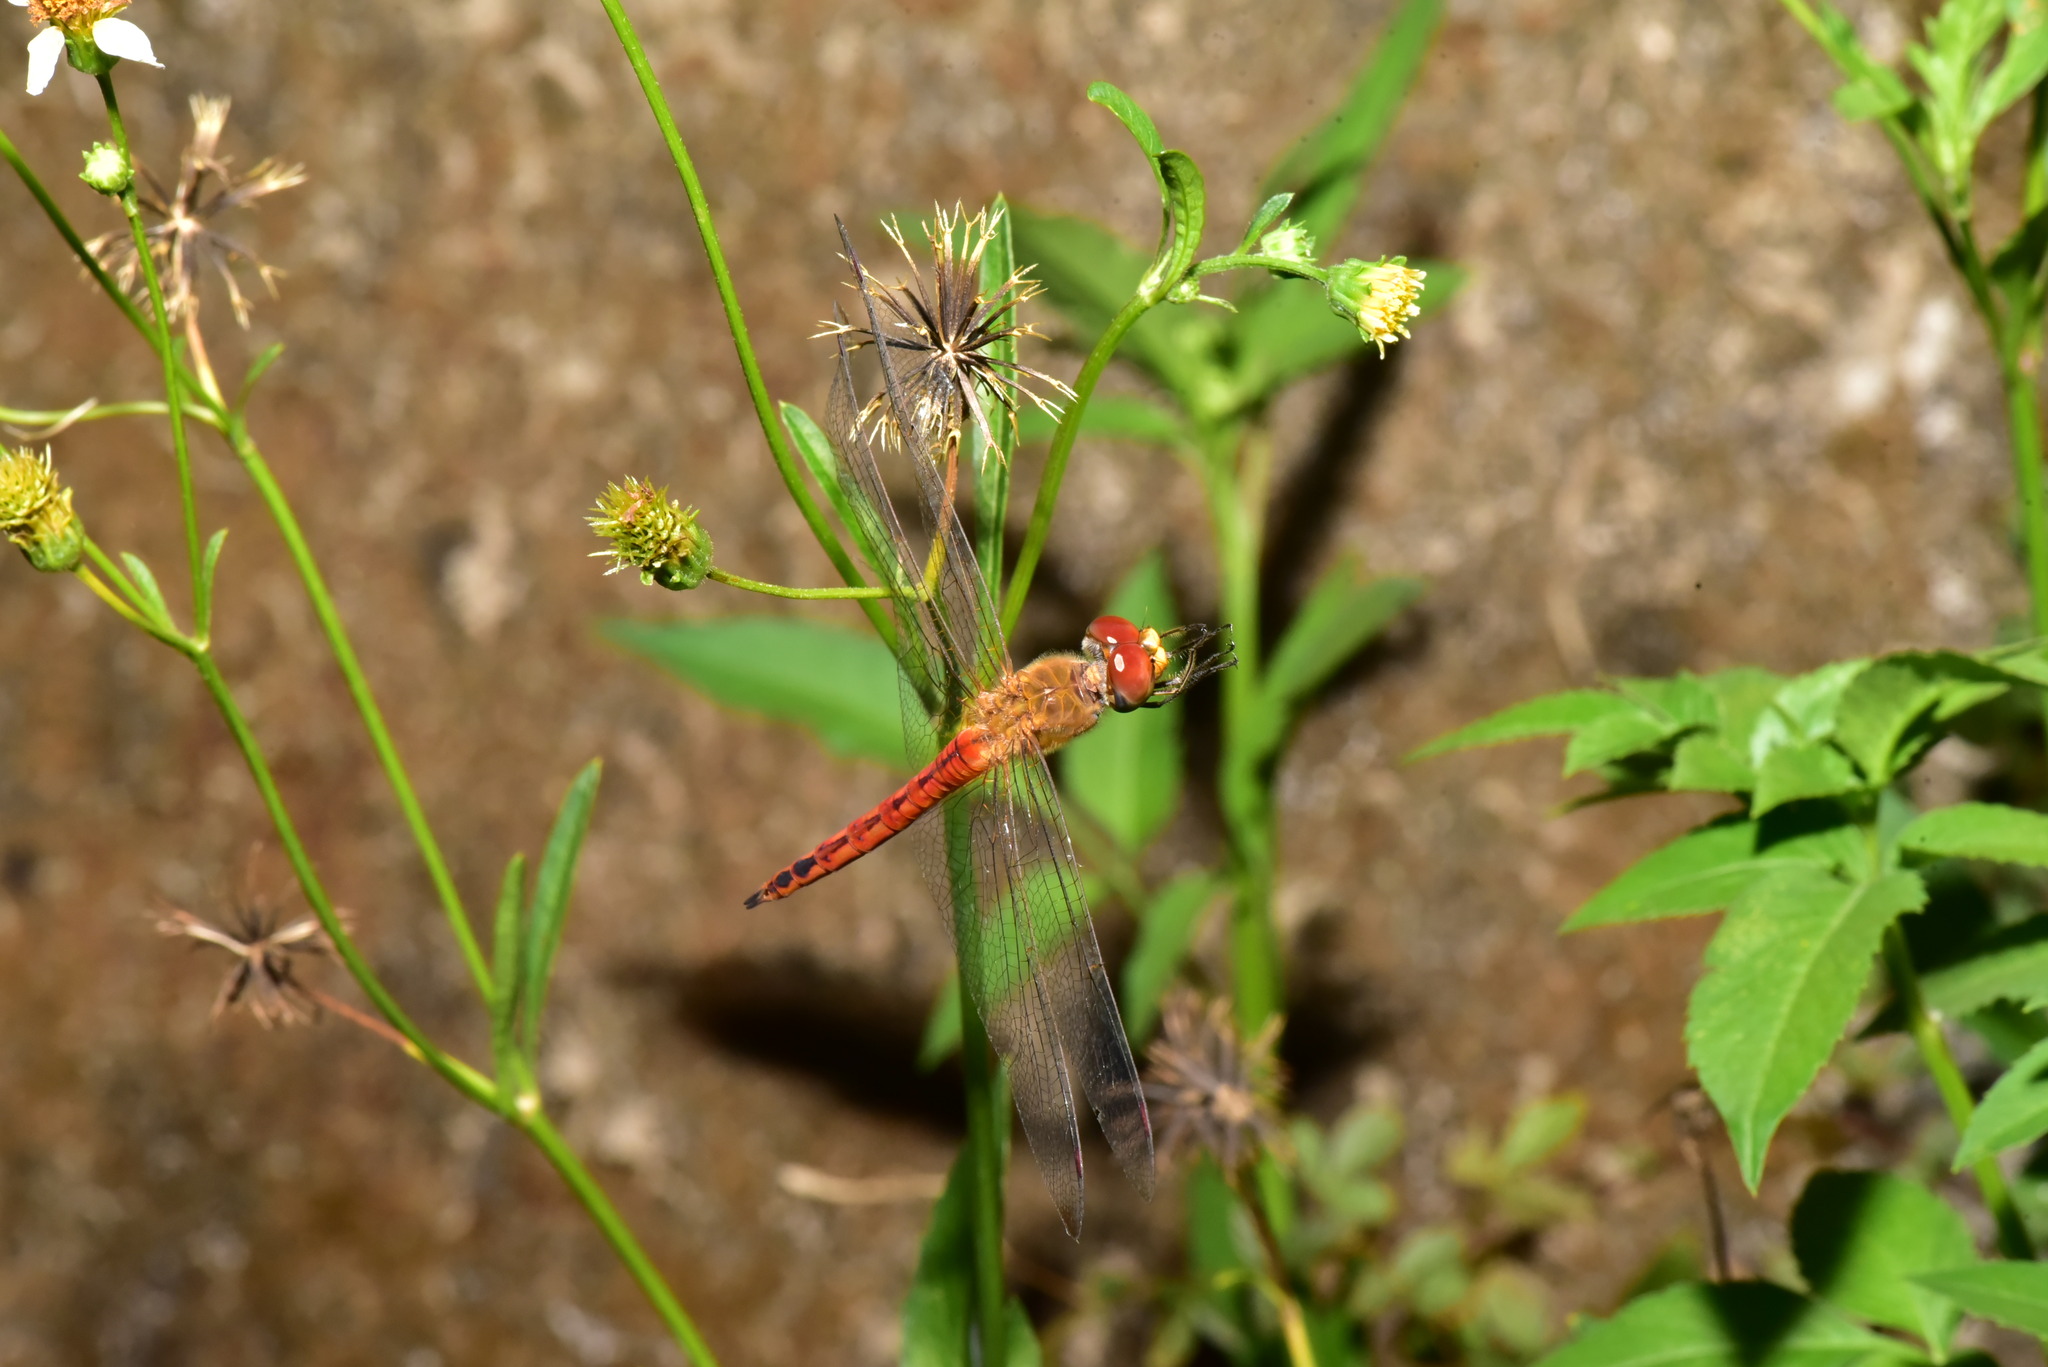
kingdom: Animalia
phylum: Arthropoda
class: Insecta
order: Odonata
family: Libellulidae
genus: Pantala
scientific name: Pantala flavescens
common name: Wandering glider
